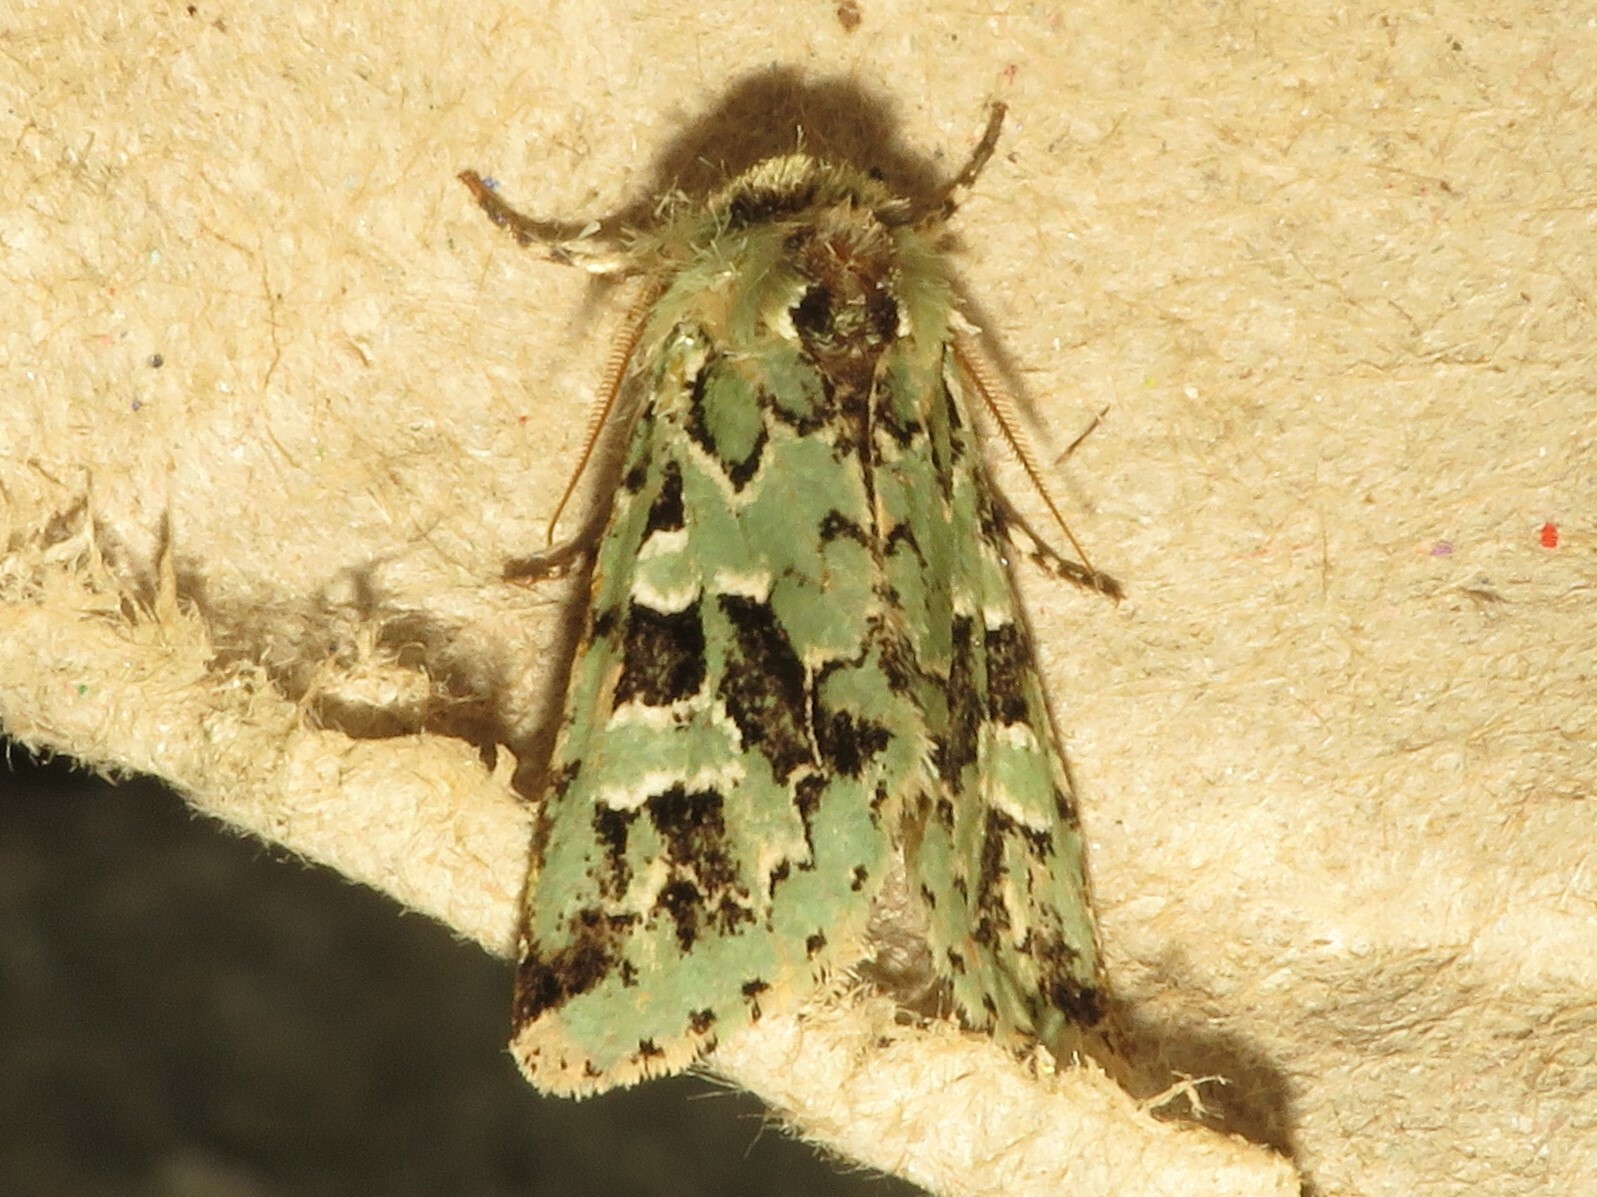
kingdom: Animalia
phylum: Arthropoda
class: Insecta
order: Lepidoptera
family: Noctuidae
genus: Feralia
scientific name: Feralia comstocki
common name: Comstock's sallow
